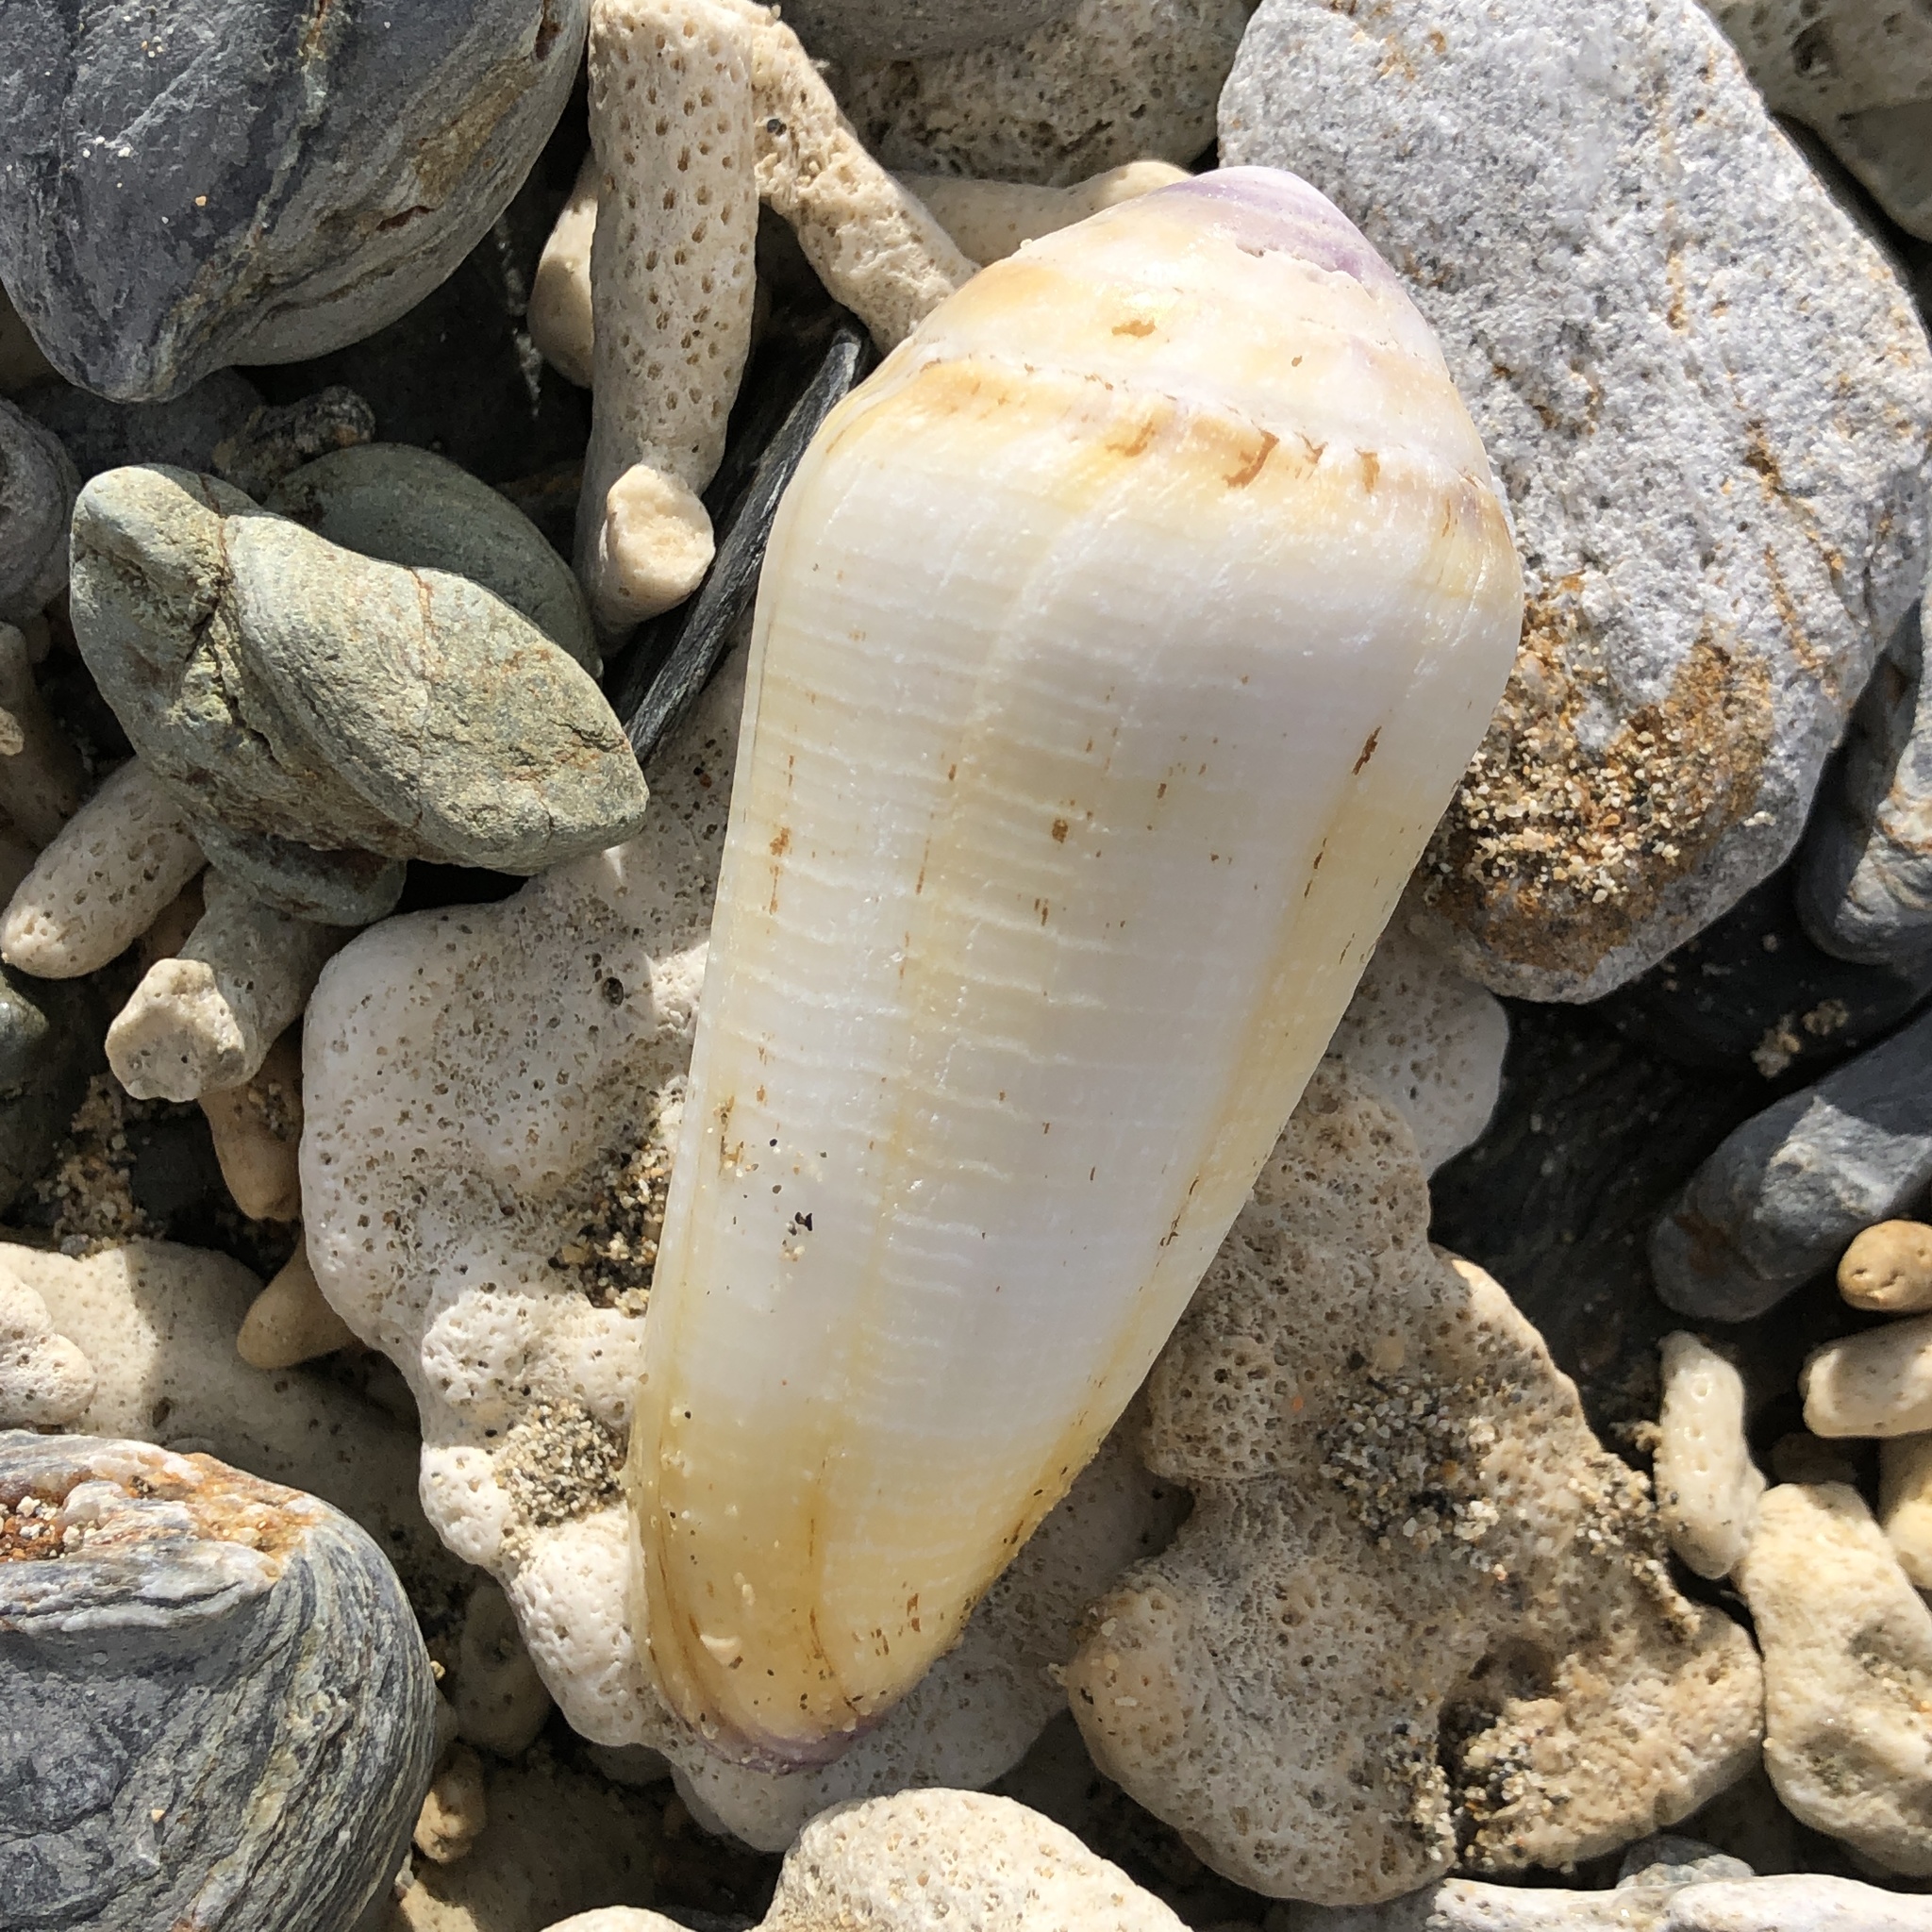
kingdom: Animalia
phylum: Mollusca
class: Gastropoda
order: Neogastropoda
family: Conidae
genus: Conus
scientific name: Conus terebra
